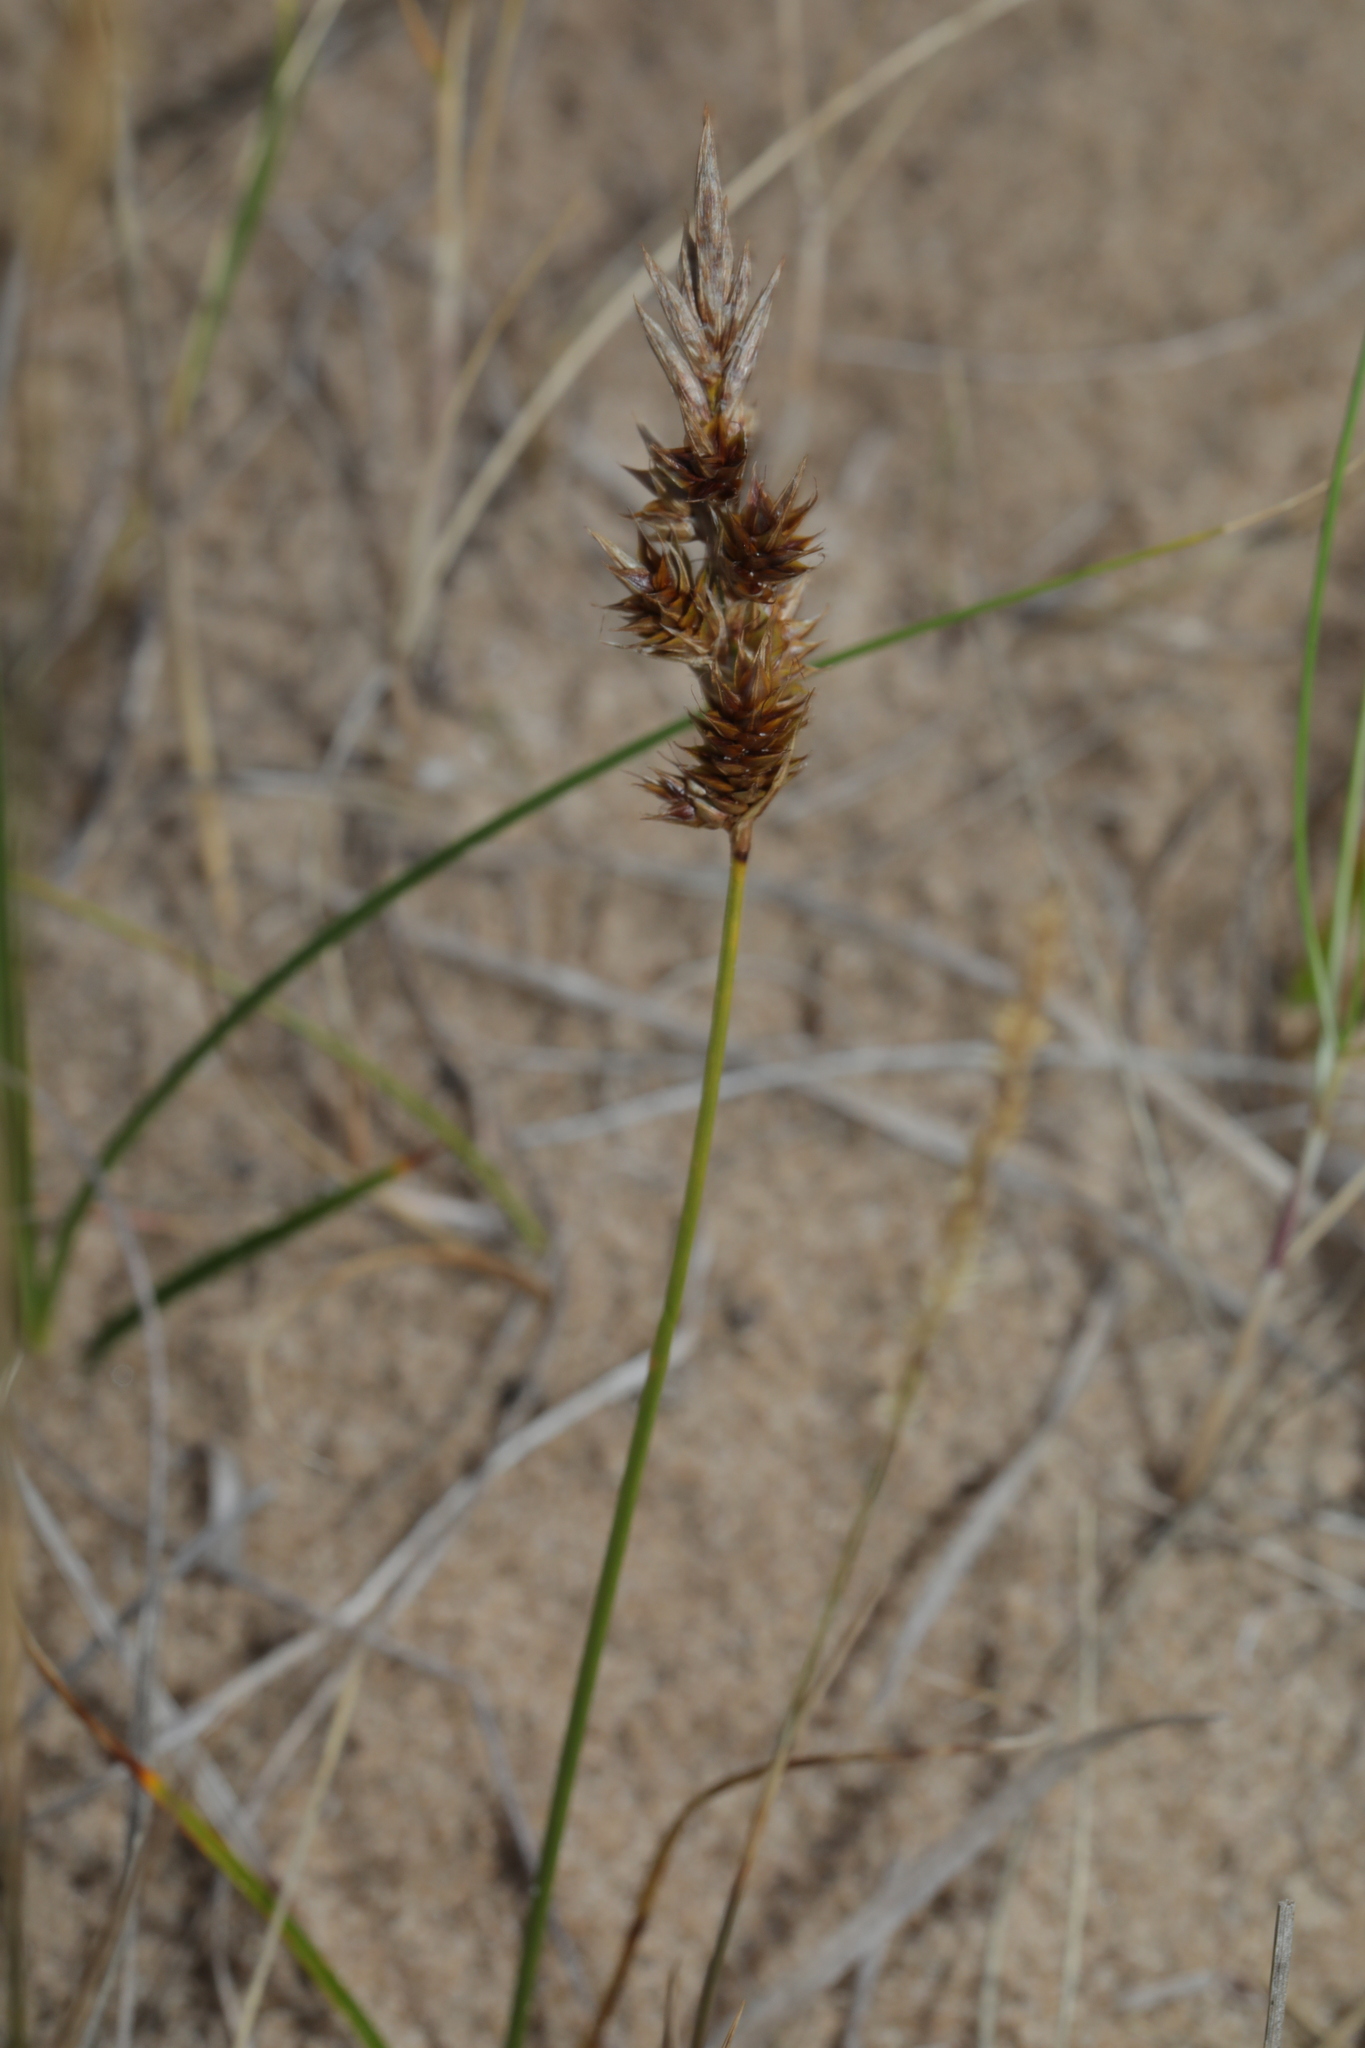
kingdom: Plantae
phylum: Tracheophyta
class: Liliopsida
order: Poales
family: Cyperaceae
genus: Carex
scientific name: Carex arenaria
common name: Sand sedge
